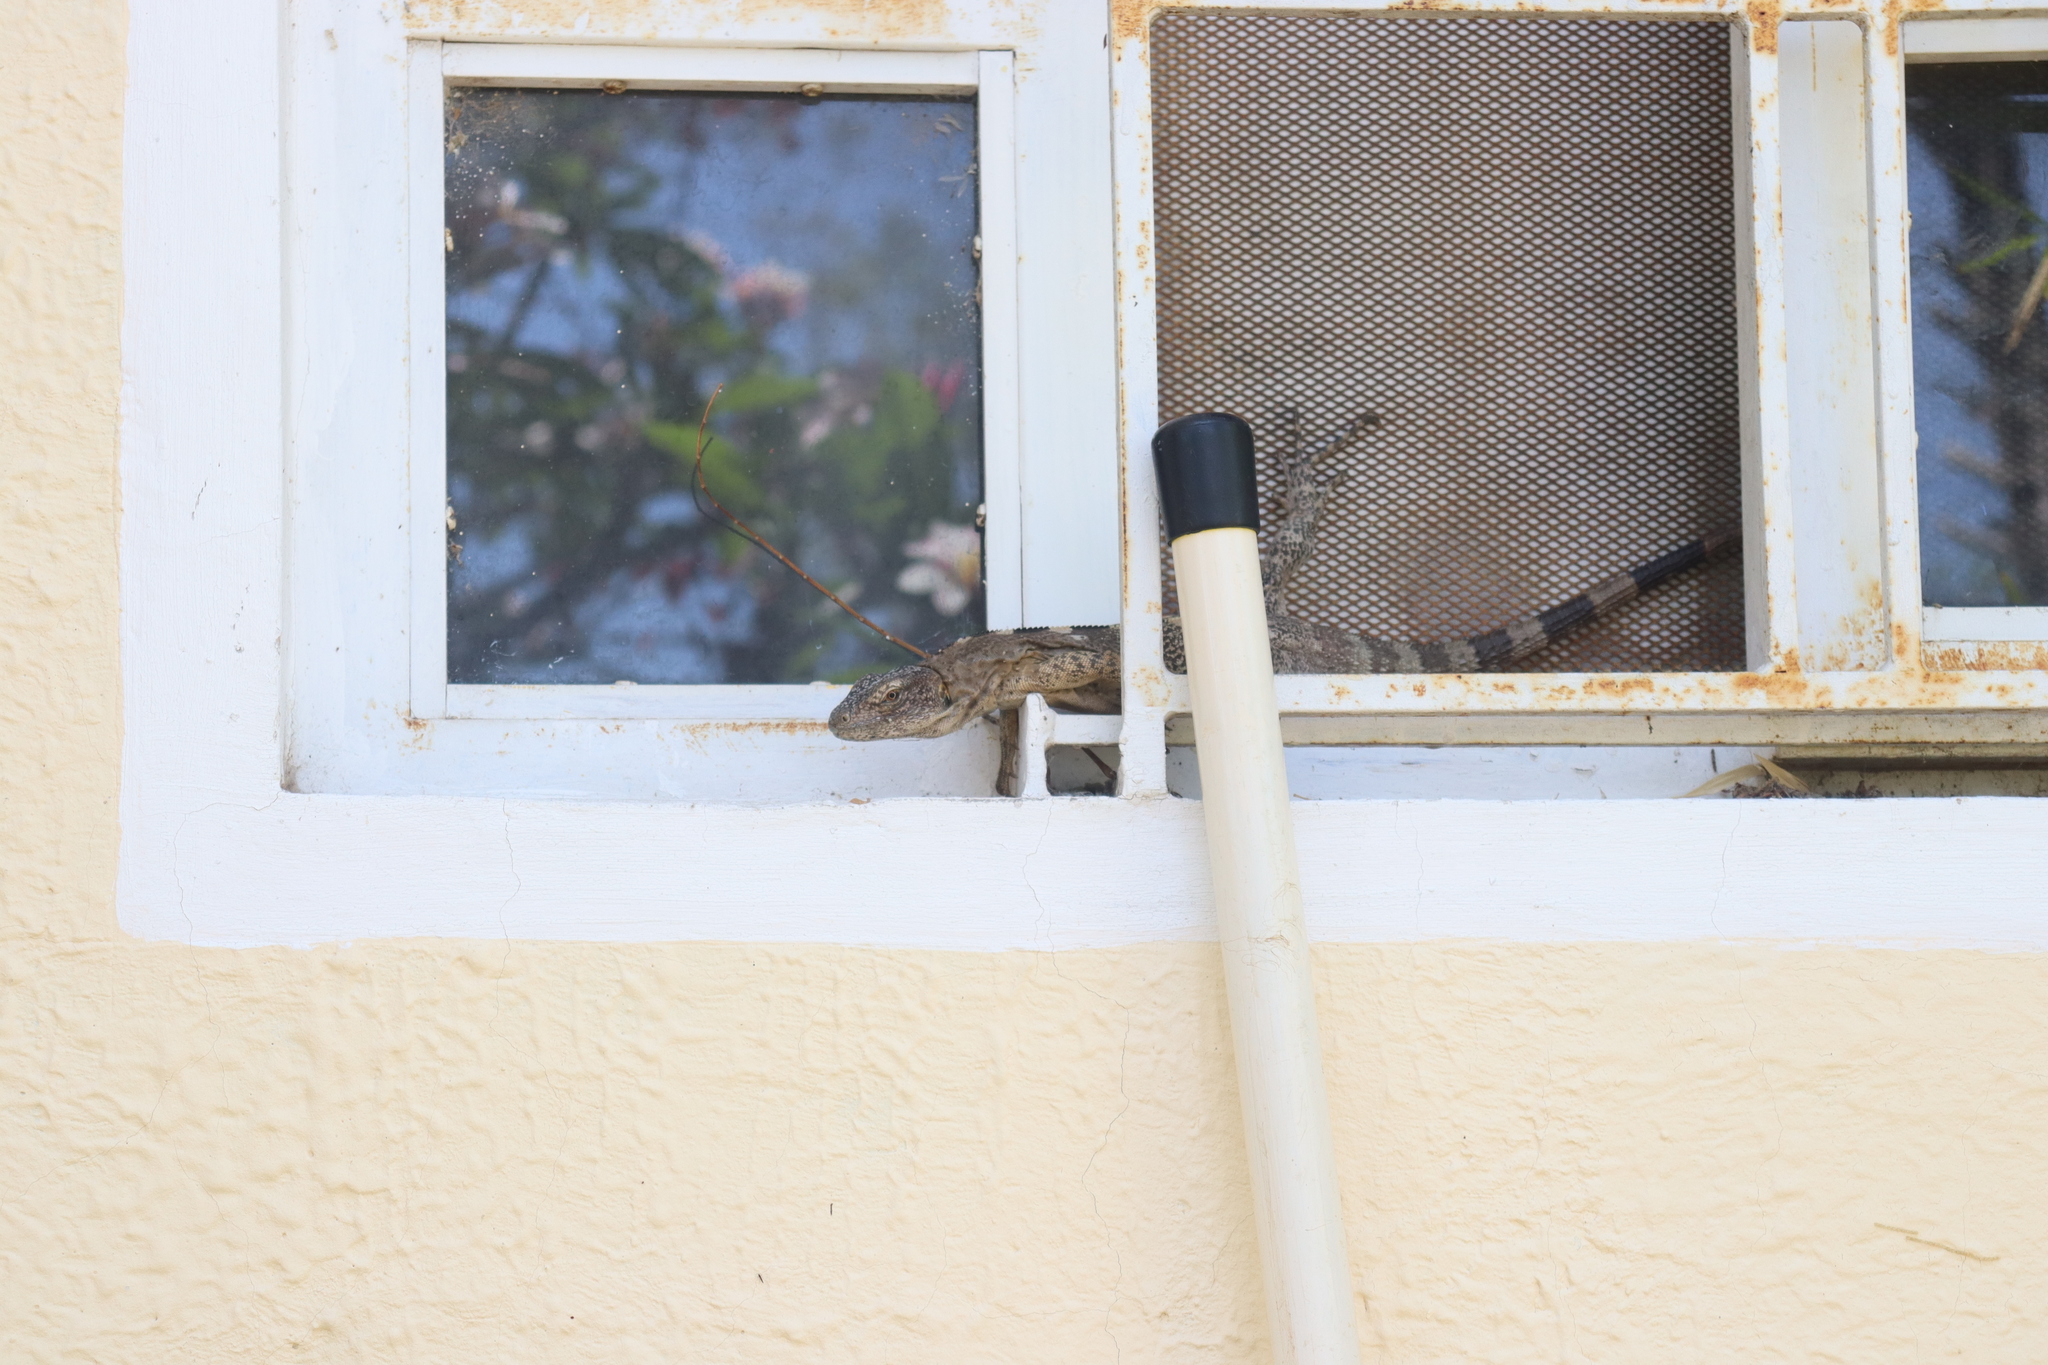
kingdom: Animalia
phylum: Chordata
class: Squamata
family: Iguanidae
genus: Ctenosaura
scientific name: Ctenosaura pectinata
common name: Guerreran spiny-tailed iguana
